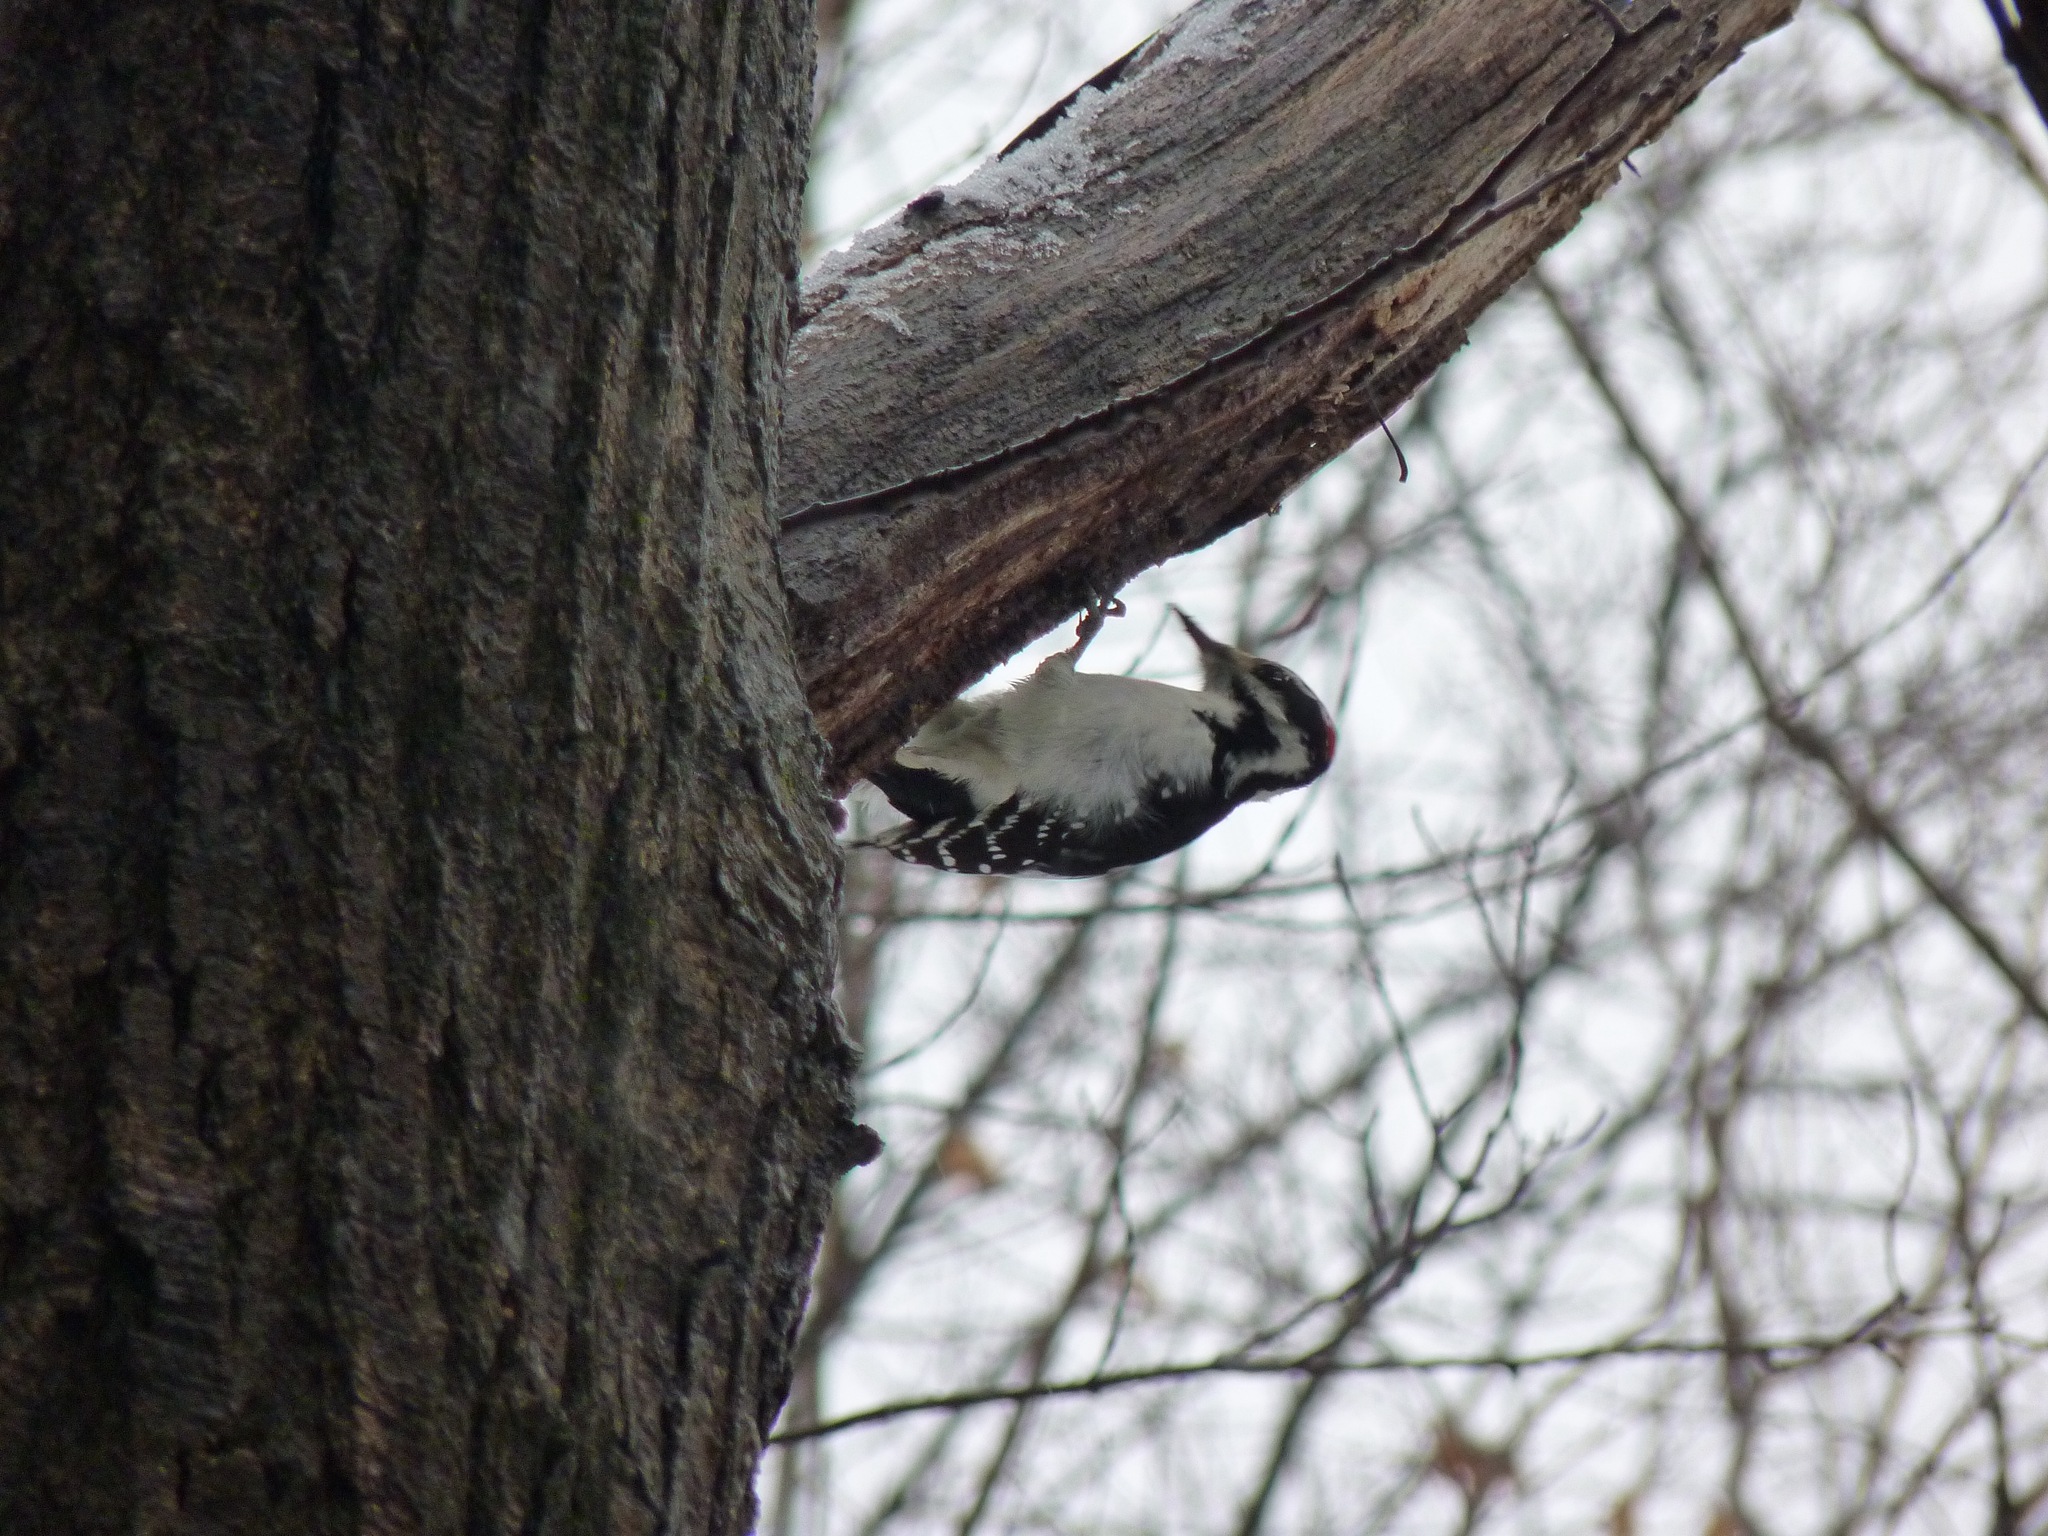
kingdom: Animalia
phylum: Chordata
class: Aves
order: Piciformes
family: Picidae
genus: Leuconotopicus
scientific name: Leuconotopicus villosus
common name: Hairy woodpecker
